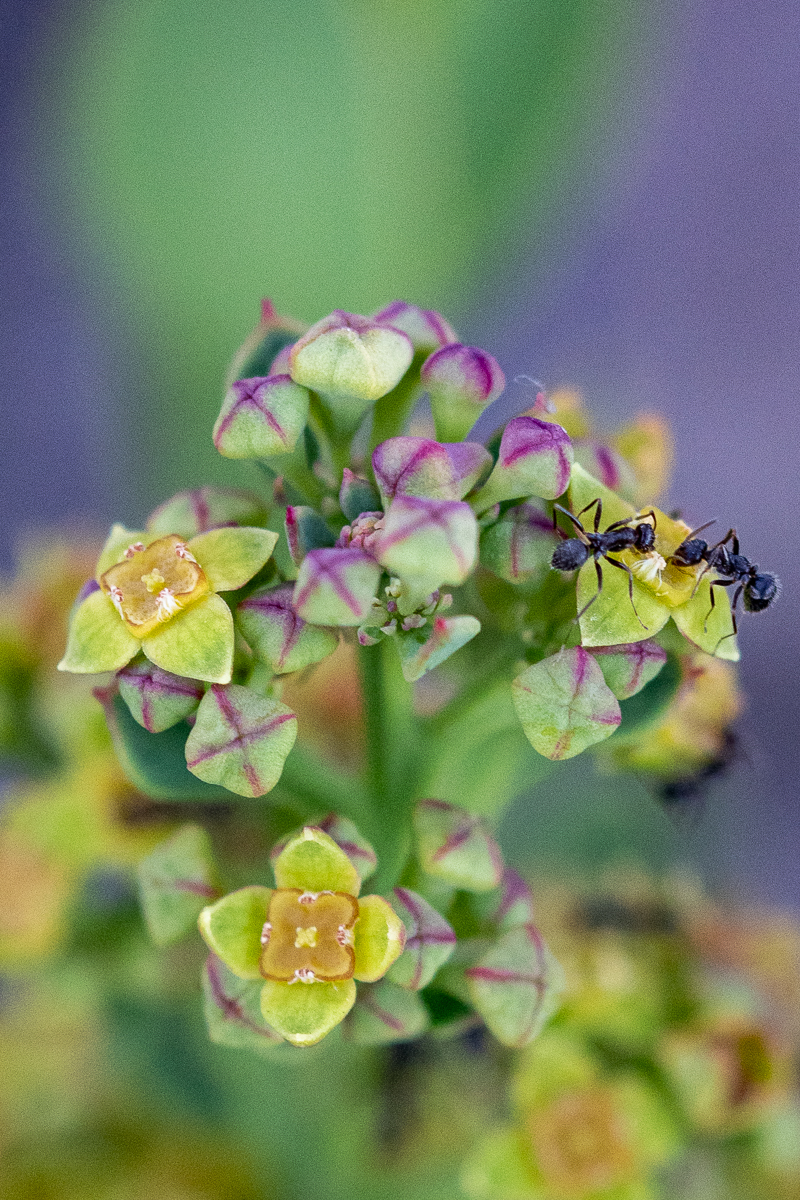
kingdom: Plantae
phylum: Tracheophyta
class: Magnoliopsida
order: Santalales
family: Santalaceae
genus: Osyris
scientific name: Osyris compressa
